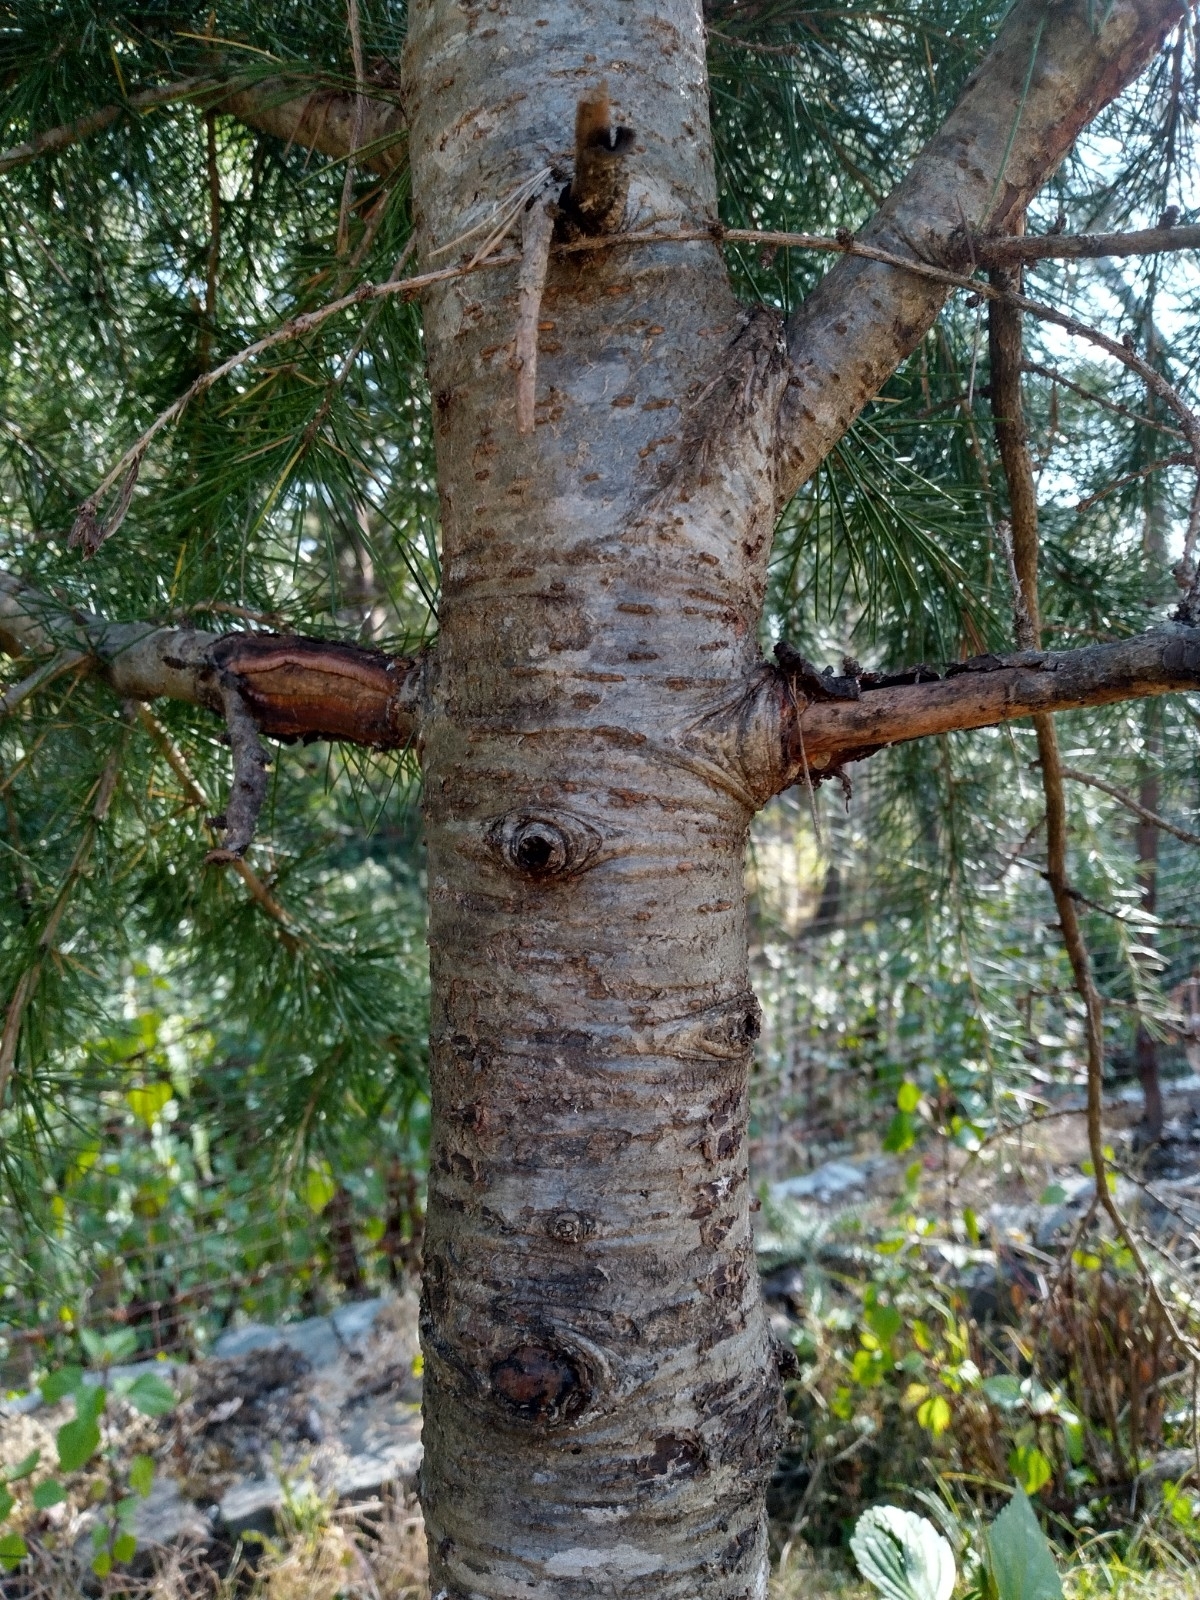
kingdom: Plantae
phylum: Tracheophyta
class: Pinopsida
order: Pinales
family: Pinaceae
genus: Cedrus
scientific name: Cedrus deodara
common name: Deodar
